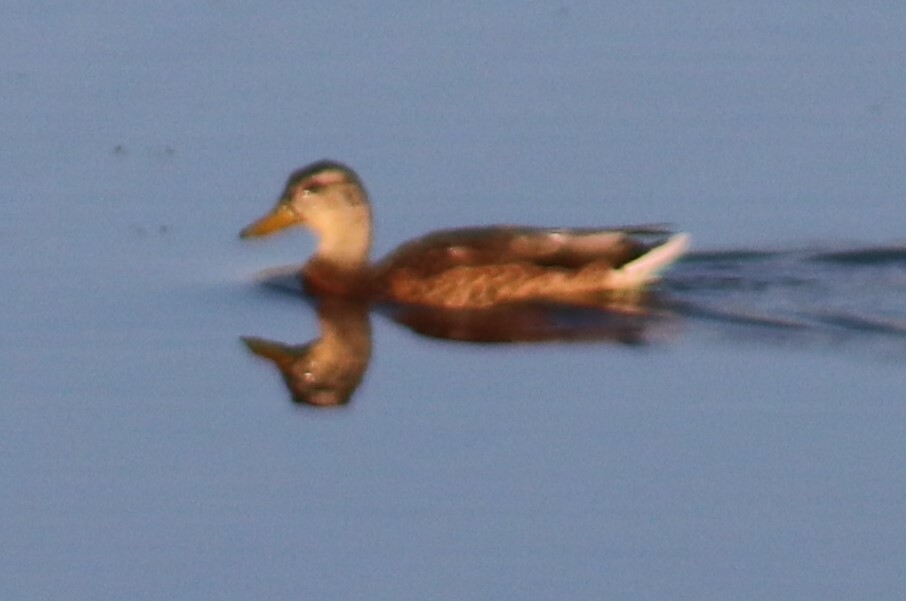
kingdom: Animalia
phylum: Chordata
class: Aves
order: Anseriformes
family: Anatidae
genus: Anas
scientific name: Anas platyrhynchos
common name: Mallard
